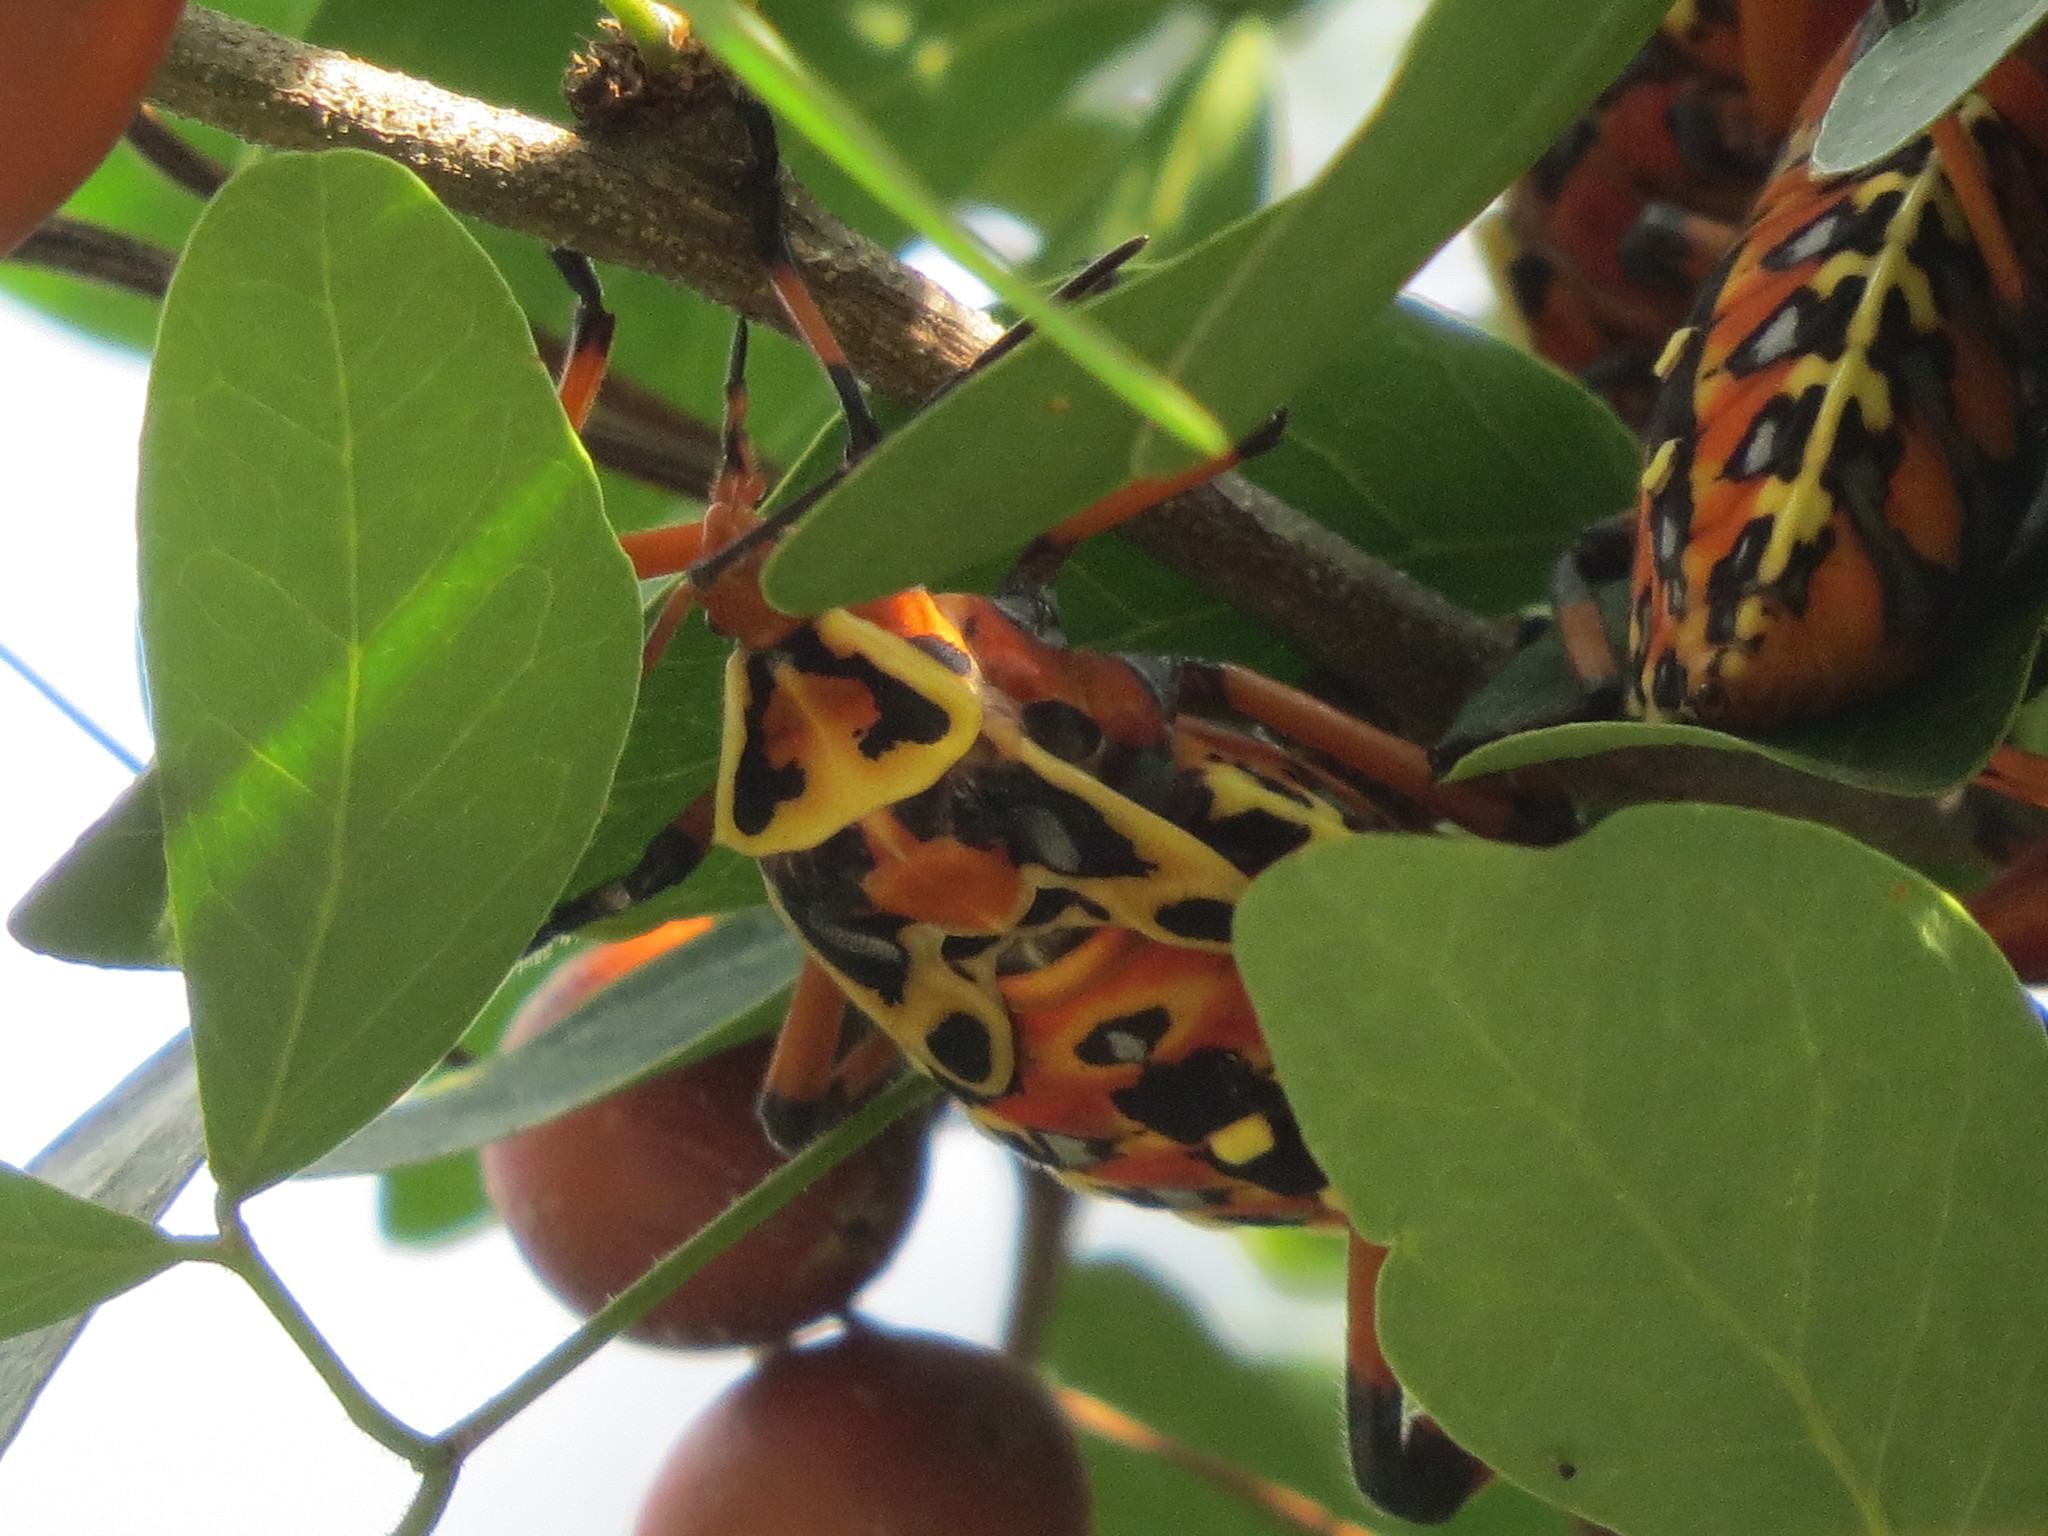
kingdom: Animalia
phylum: Arthropoda
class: Insecta
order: Hemiptera
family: Coreidae
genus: Pachylis
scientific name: Pachylis nervosus
